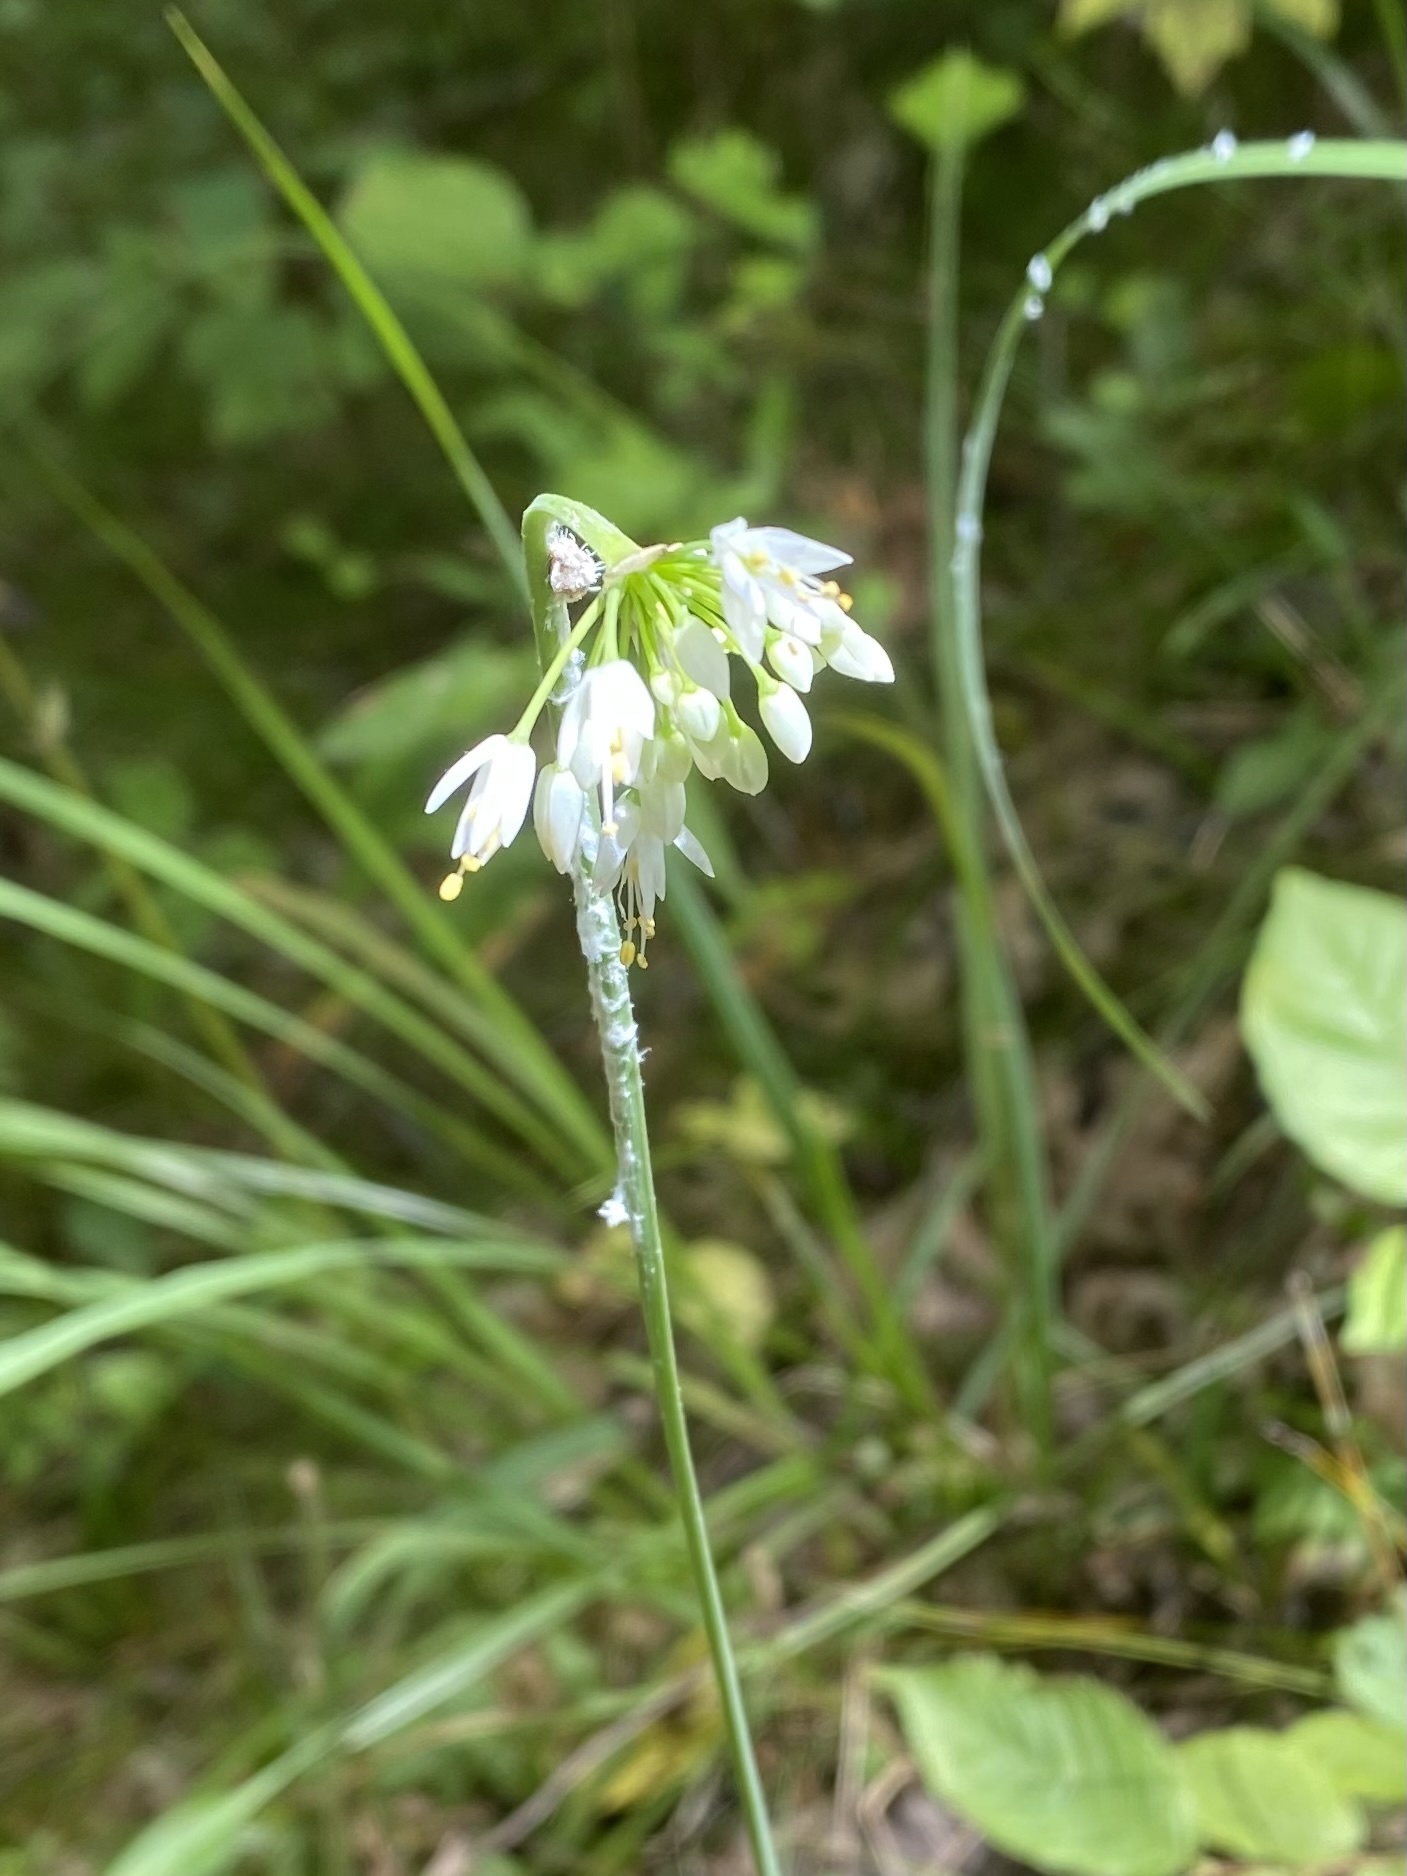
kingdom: Plantae
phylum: Tracheophyta
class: Liliopsida
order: Asparagales
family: Amaryllidaceae
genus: Allium
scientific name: Allium cernuum
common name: Nodding onion
